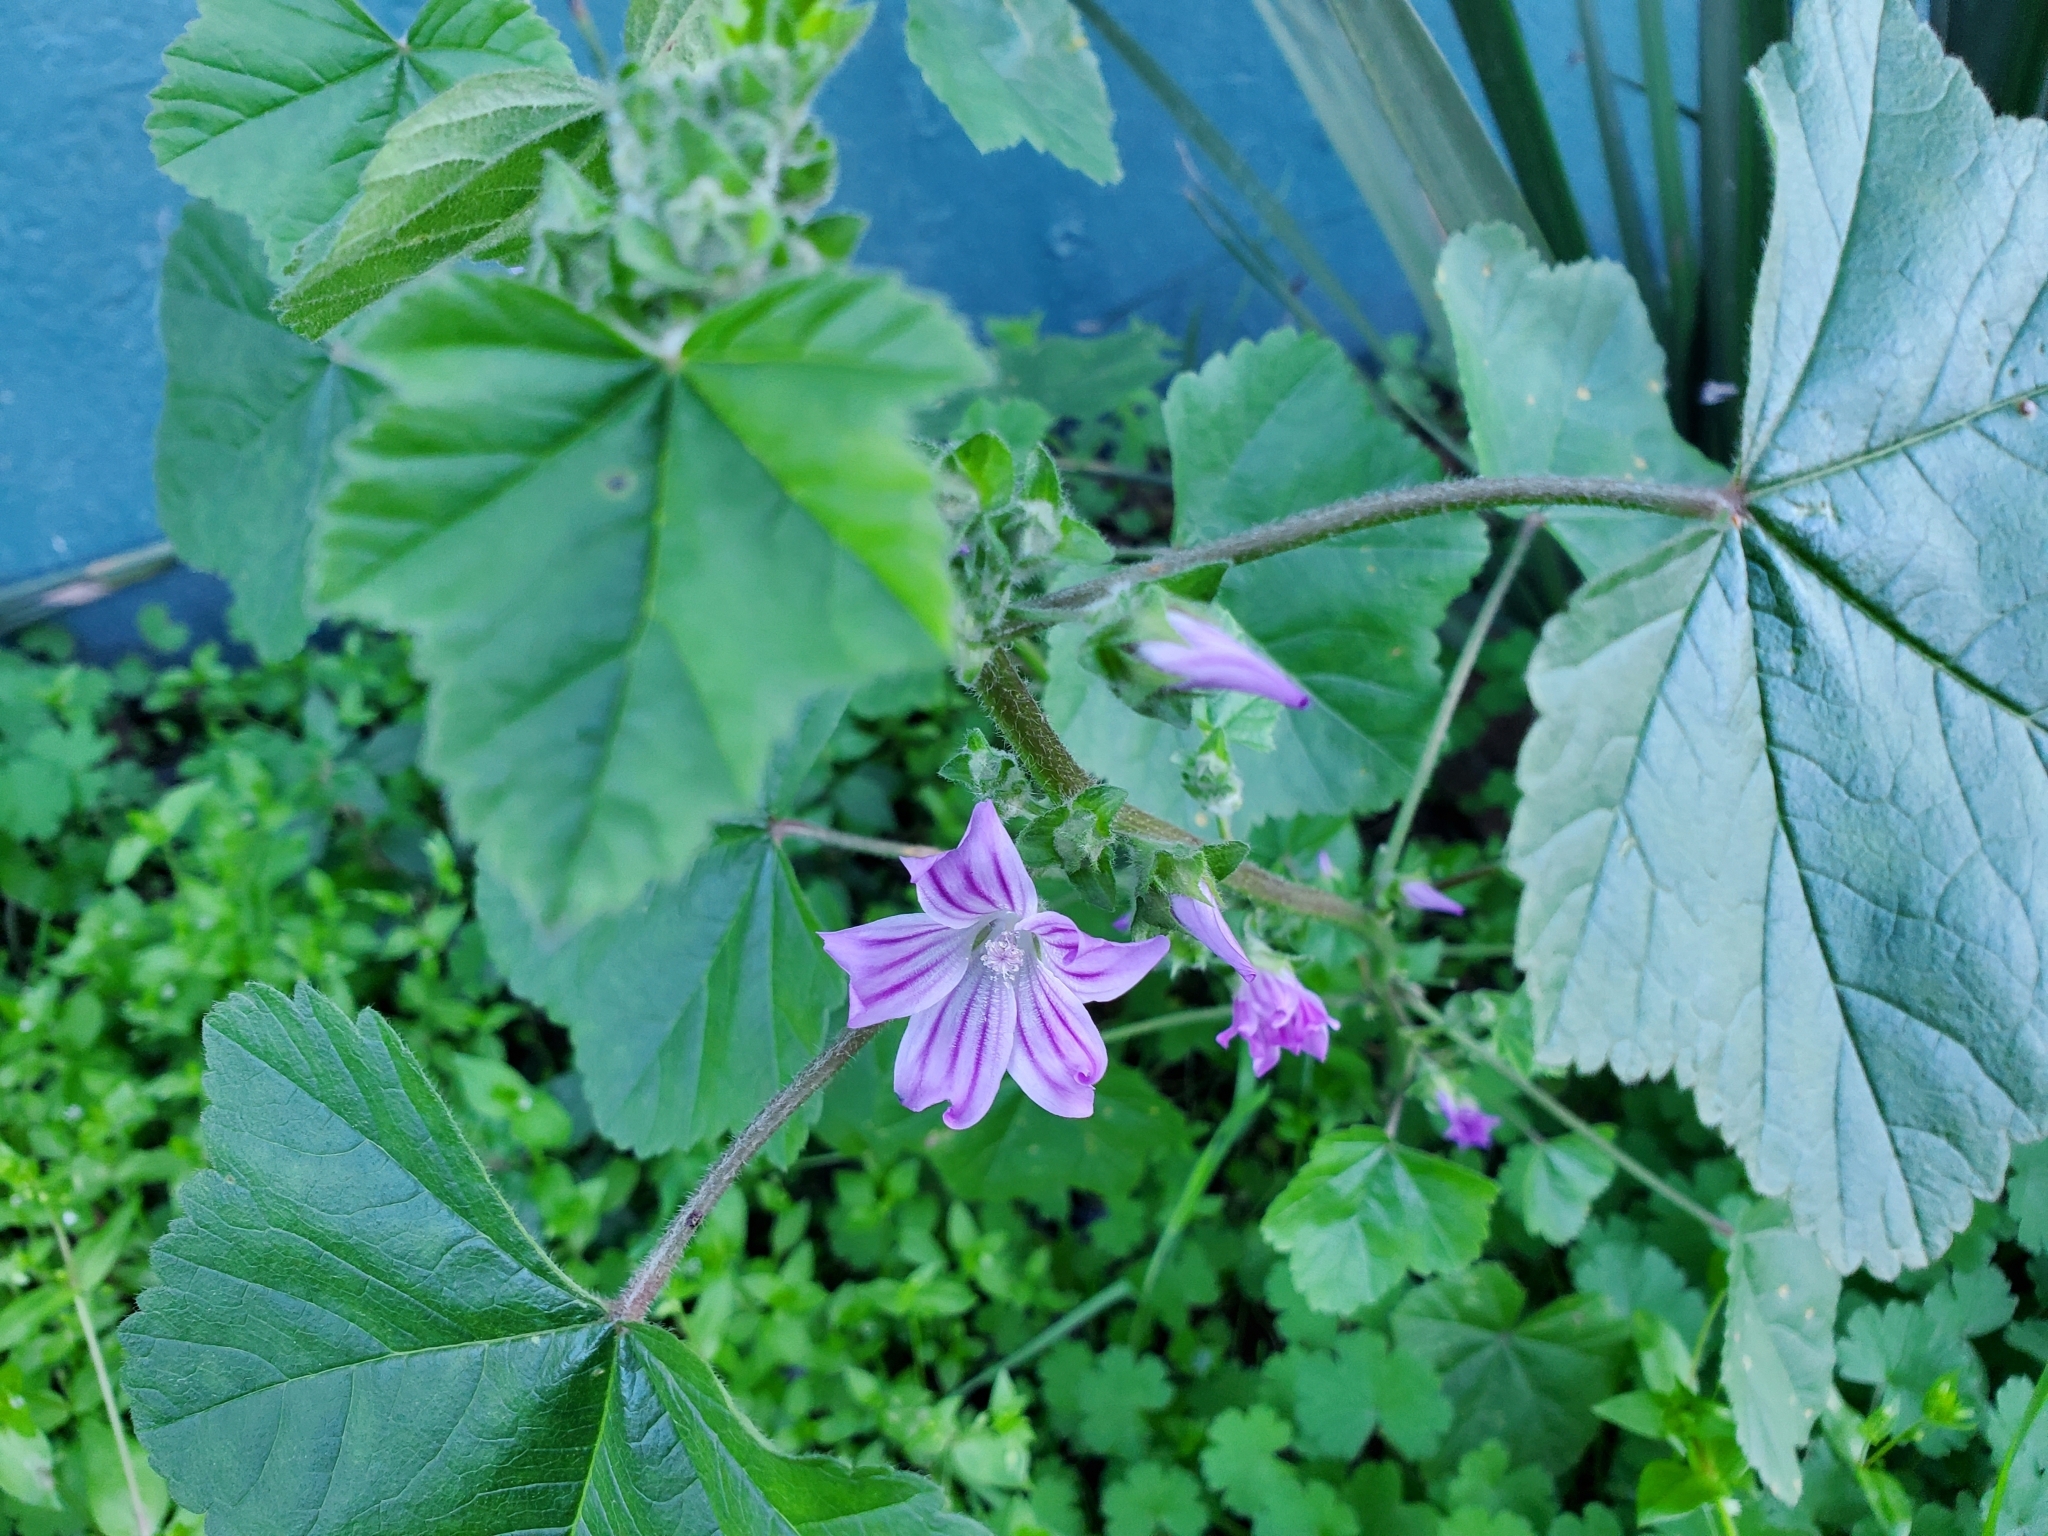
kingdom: Plantae
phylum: Tracheophyta
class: Magnoliopsida
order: Malvales
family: Malvaceae
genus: Malva
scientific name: Malva multiflora
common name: Cheeseweed
